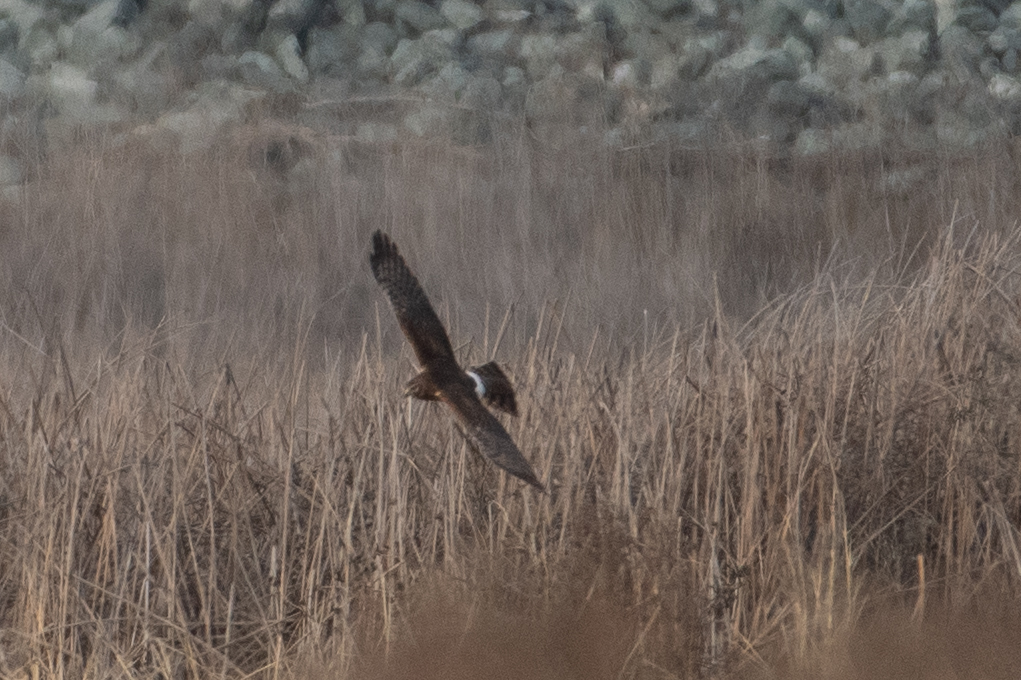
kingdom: Animalia
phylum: Chordata
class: Aves
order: Accipitriformes
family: Accipitridae
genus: Circus
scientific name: Circus cyaneus
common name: Hen harrier
